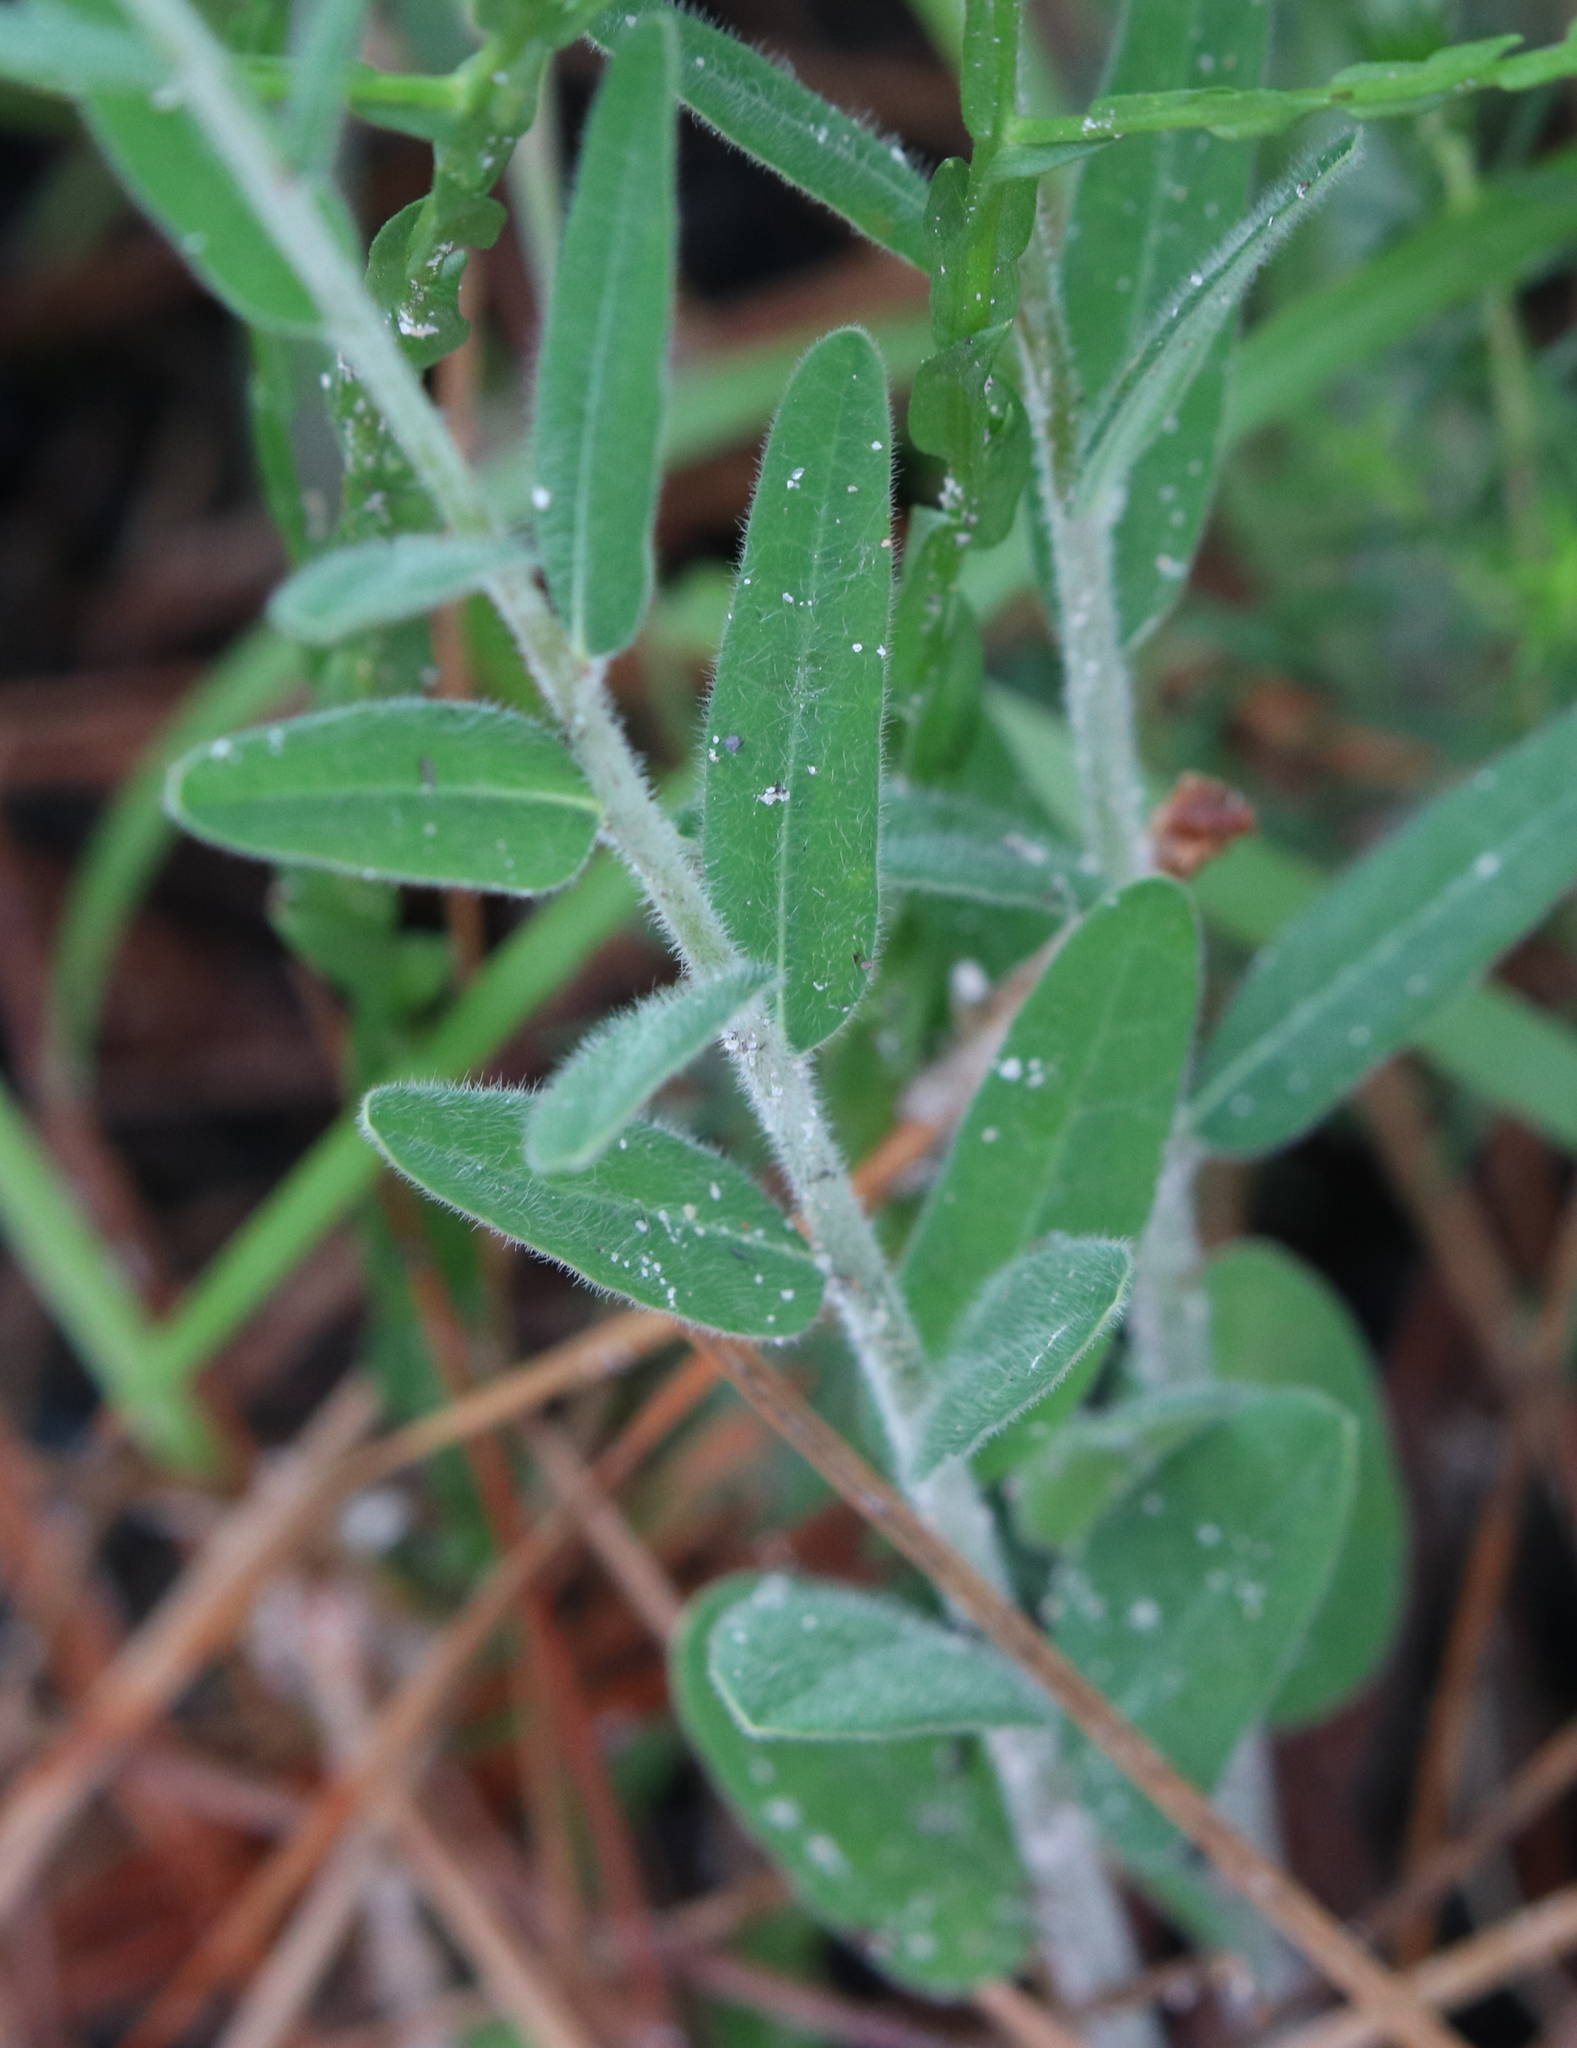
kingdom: Plantae
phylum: Tracheophyta
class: Magnoliopsida
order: Malpighiales
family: Euphorbiaceae
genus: Euphorbia
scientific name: Euphorbia corollata
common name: Flowering spurge
